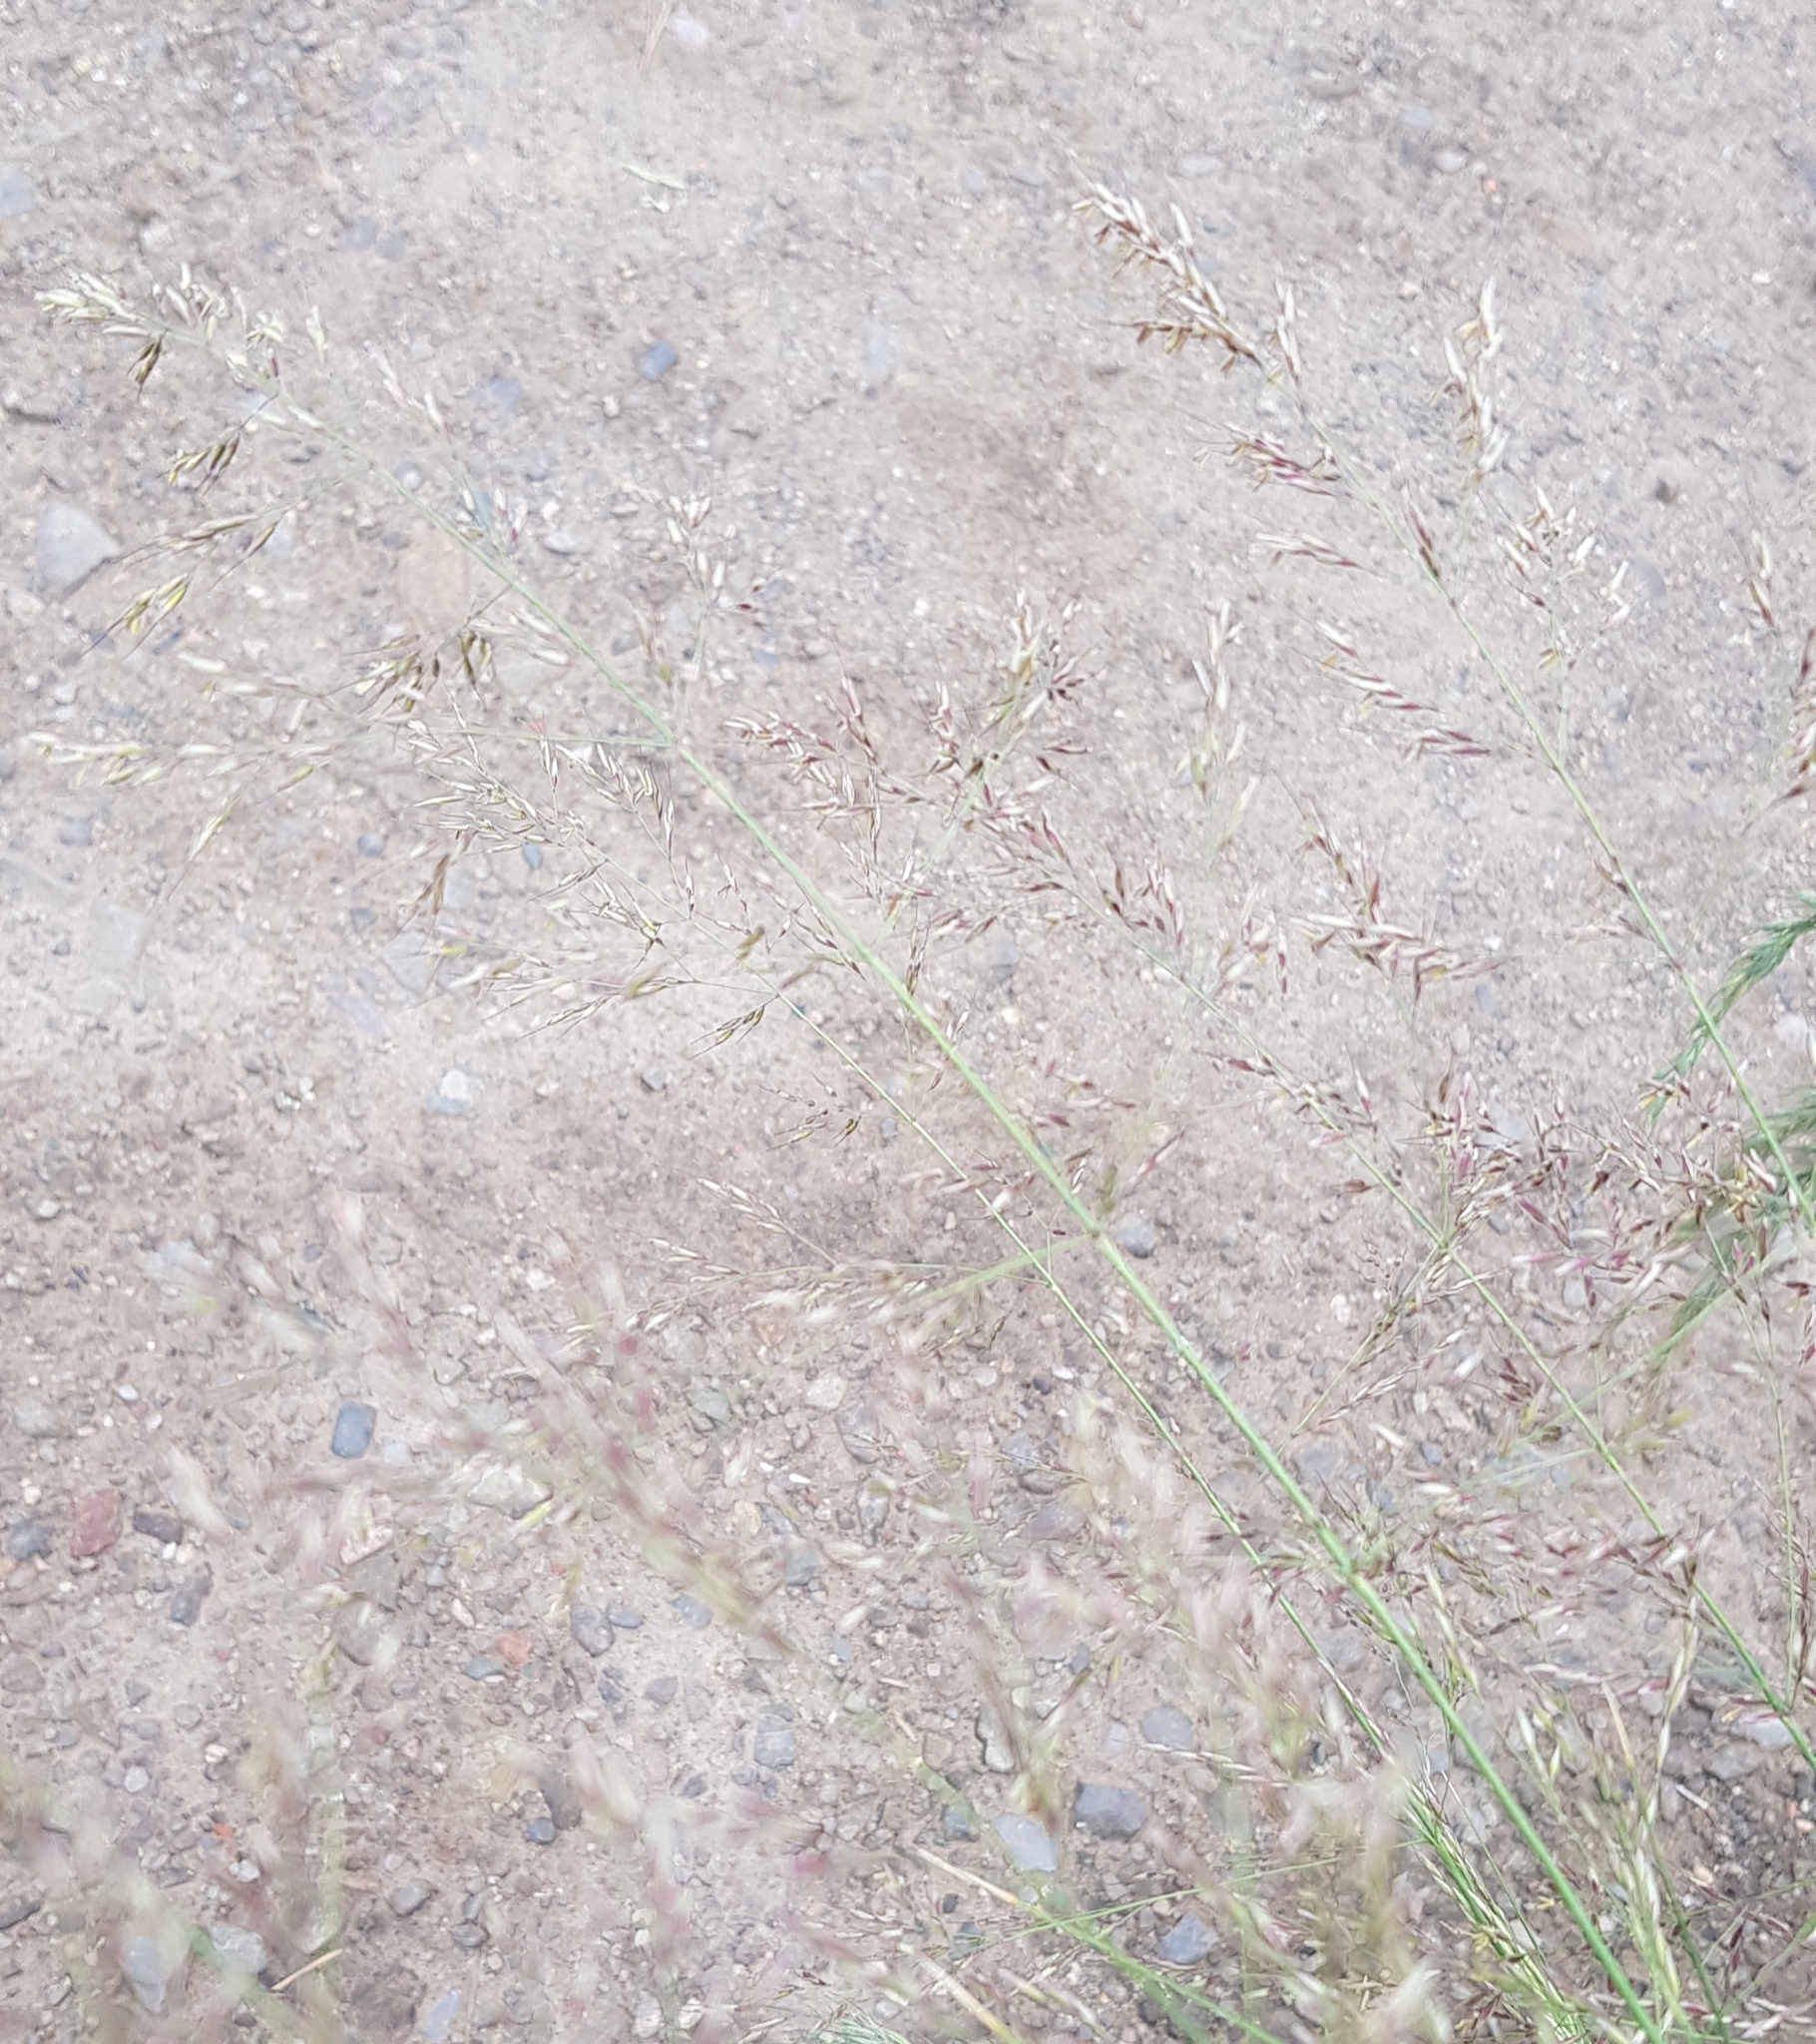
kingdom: Plantae
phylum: Tracheophyta
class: Liliopsida
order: Poales
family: Poaceae
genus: Neotrinia
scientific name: Neotrinia splendens
